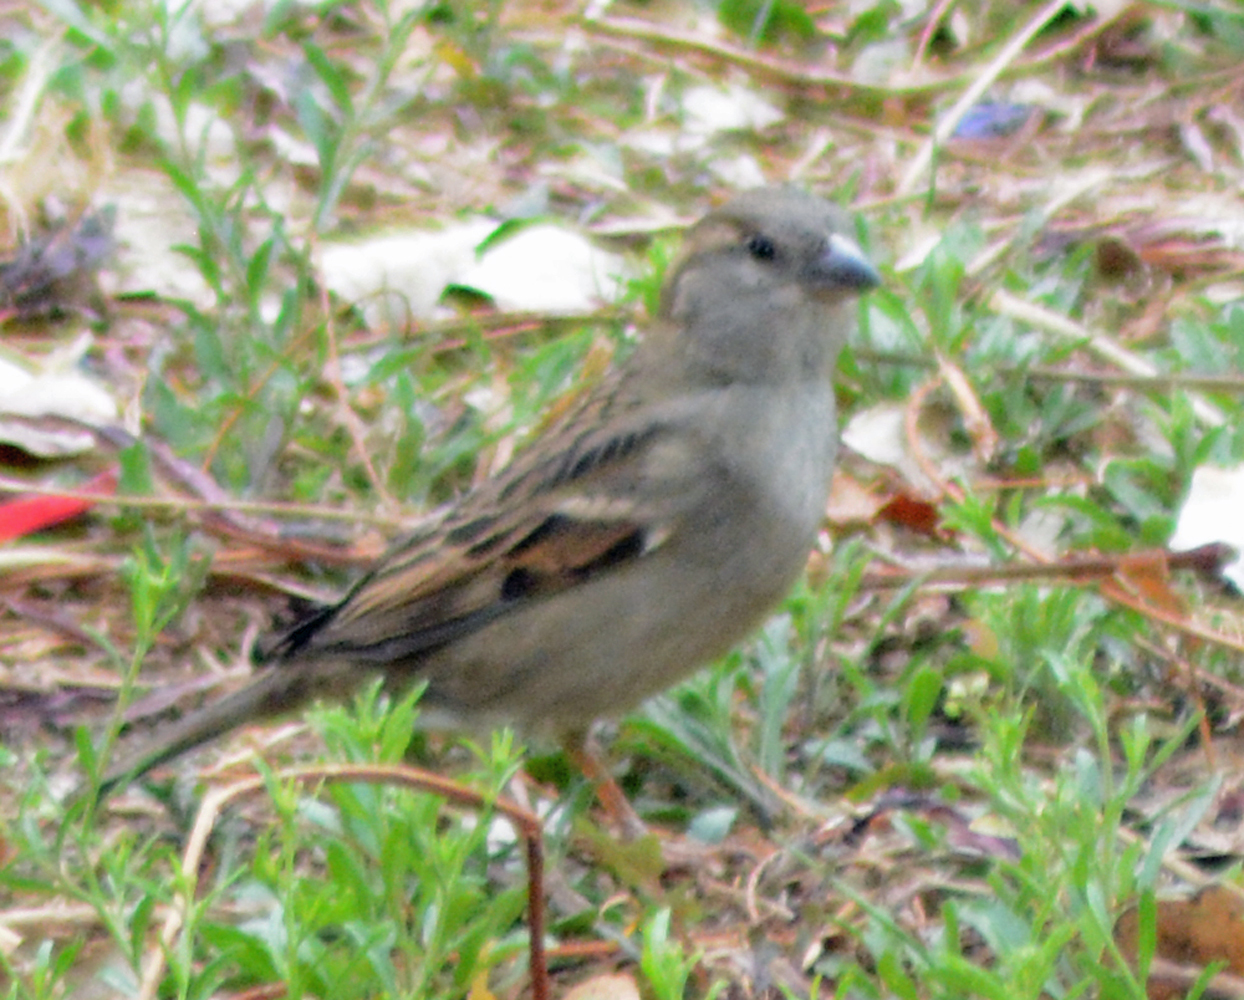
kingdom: Animalia
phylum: Chordata
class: Aves
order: Passeriformes
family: Passeridae
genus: Passer
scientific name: Passer domesticus
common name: House sparrow
